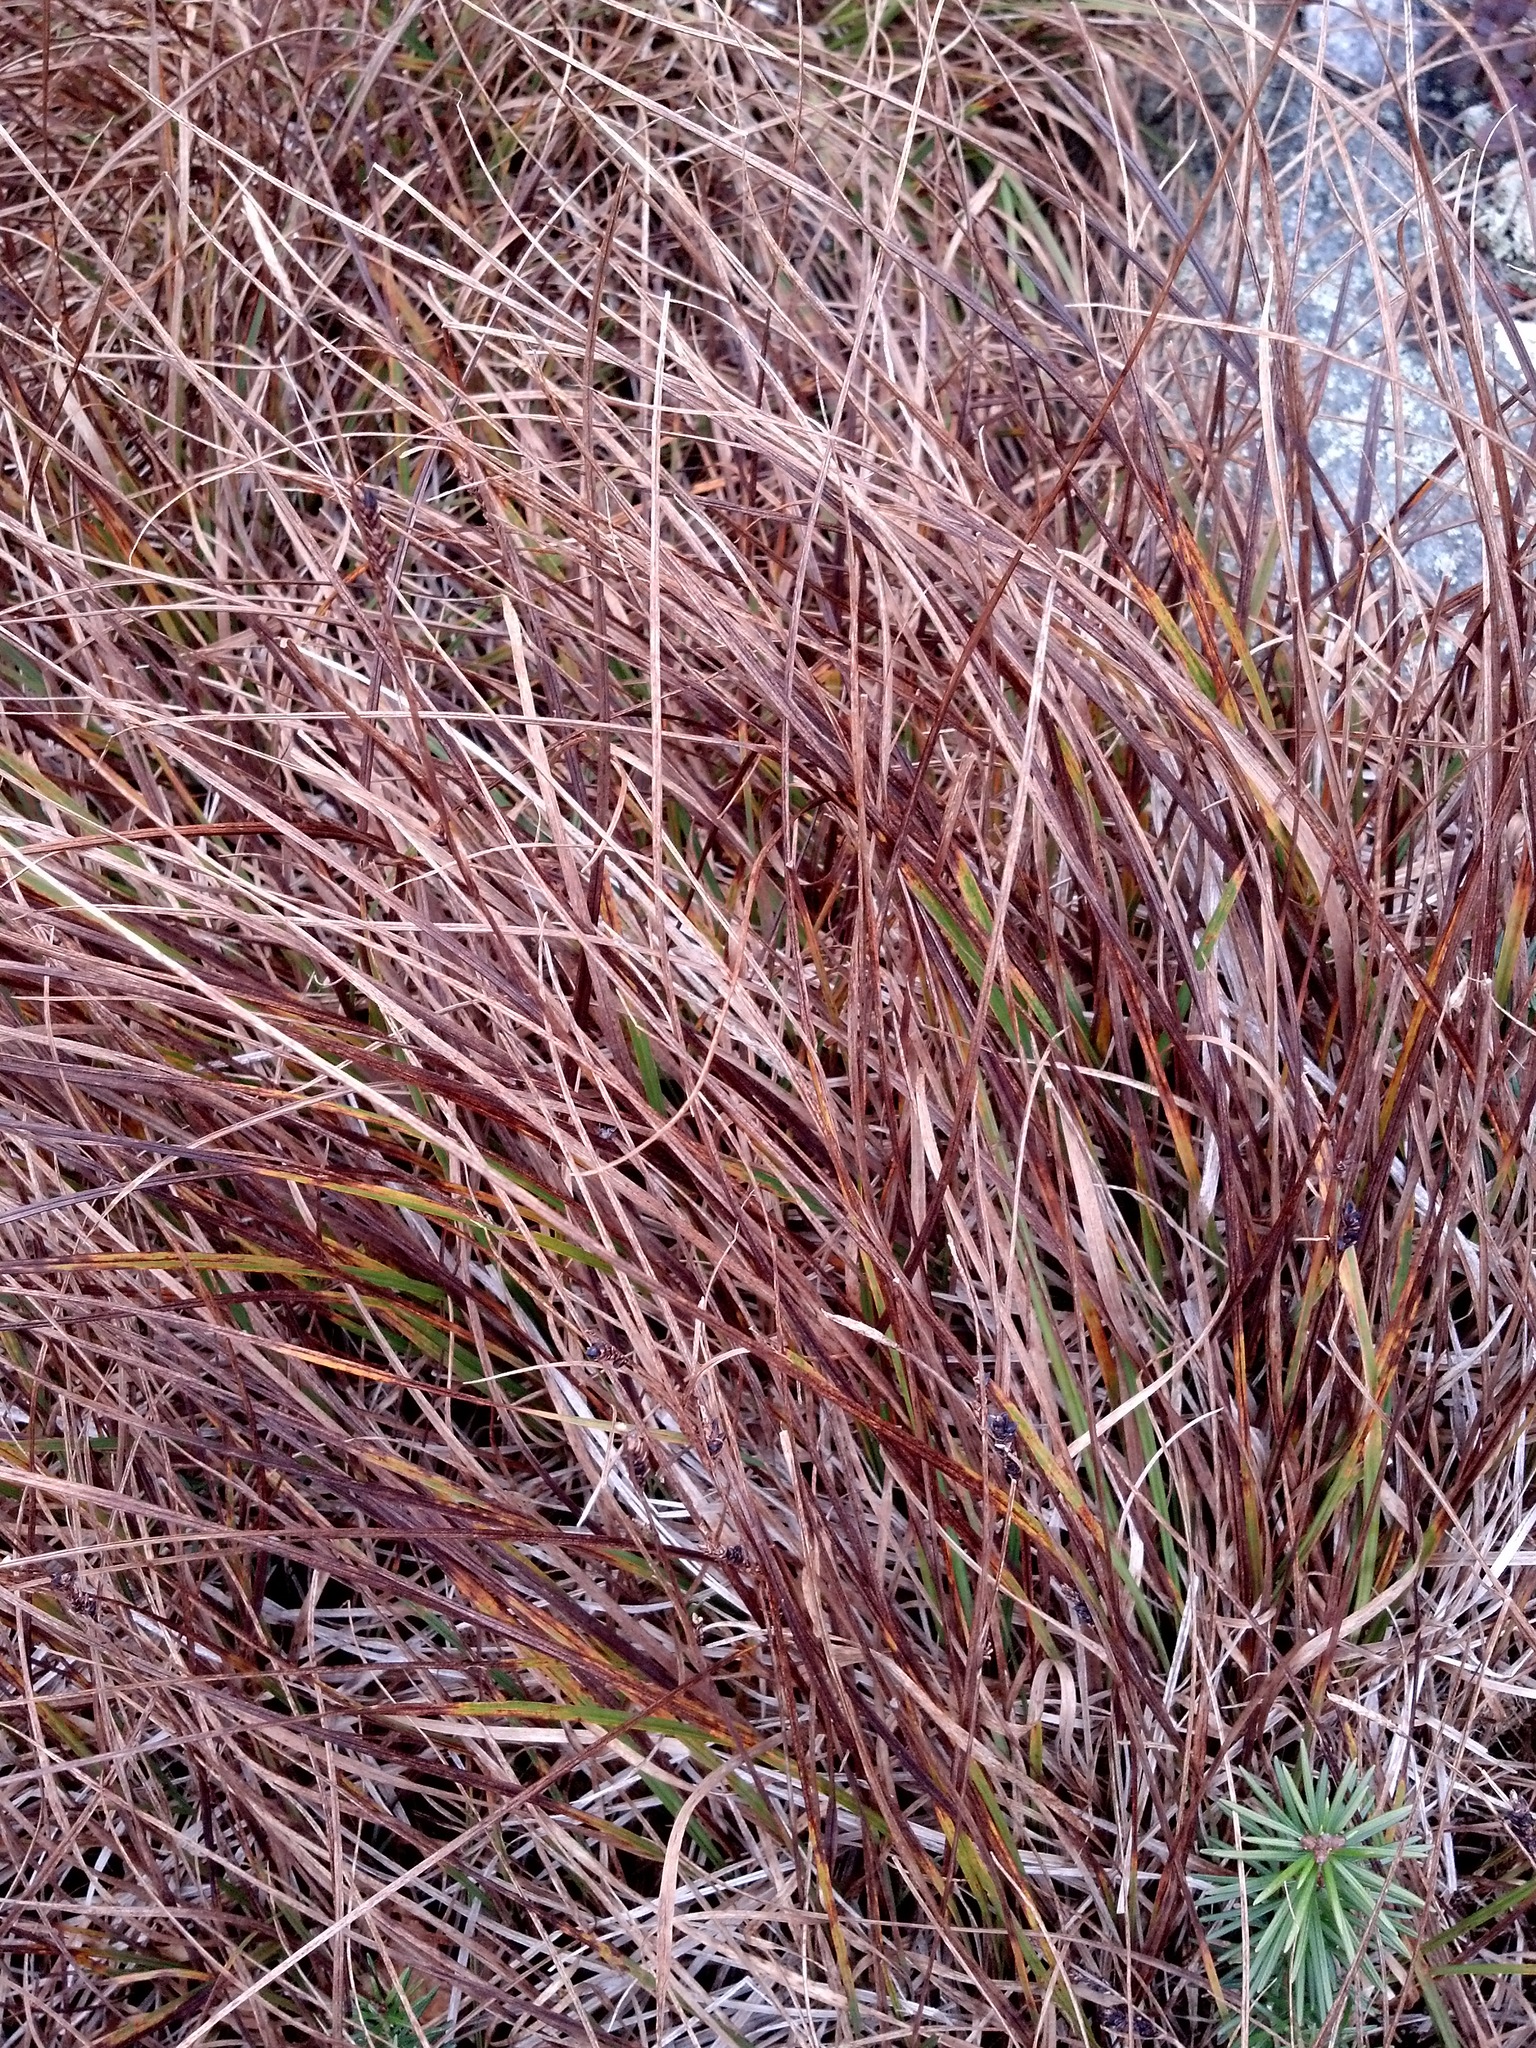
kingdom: Plantae
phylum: Tracheophyta
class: Liliopsida
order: Poales
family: Cyperaceae
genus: Carex
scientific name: Carex bigelowii
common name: Stiff sedge
